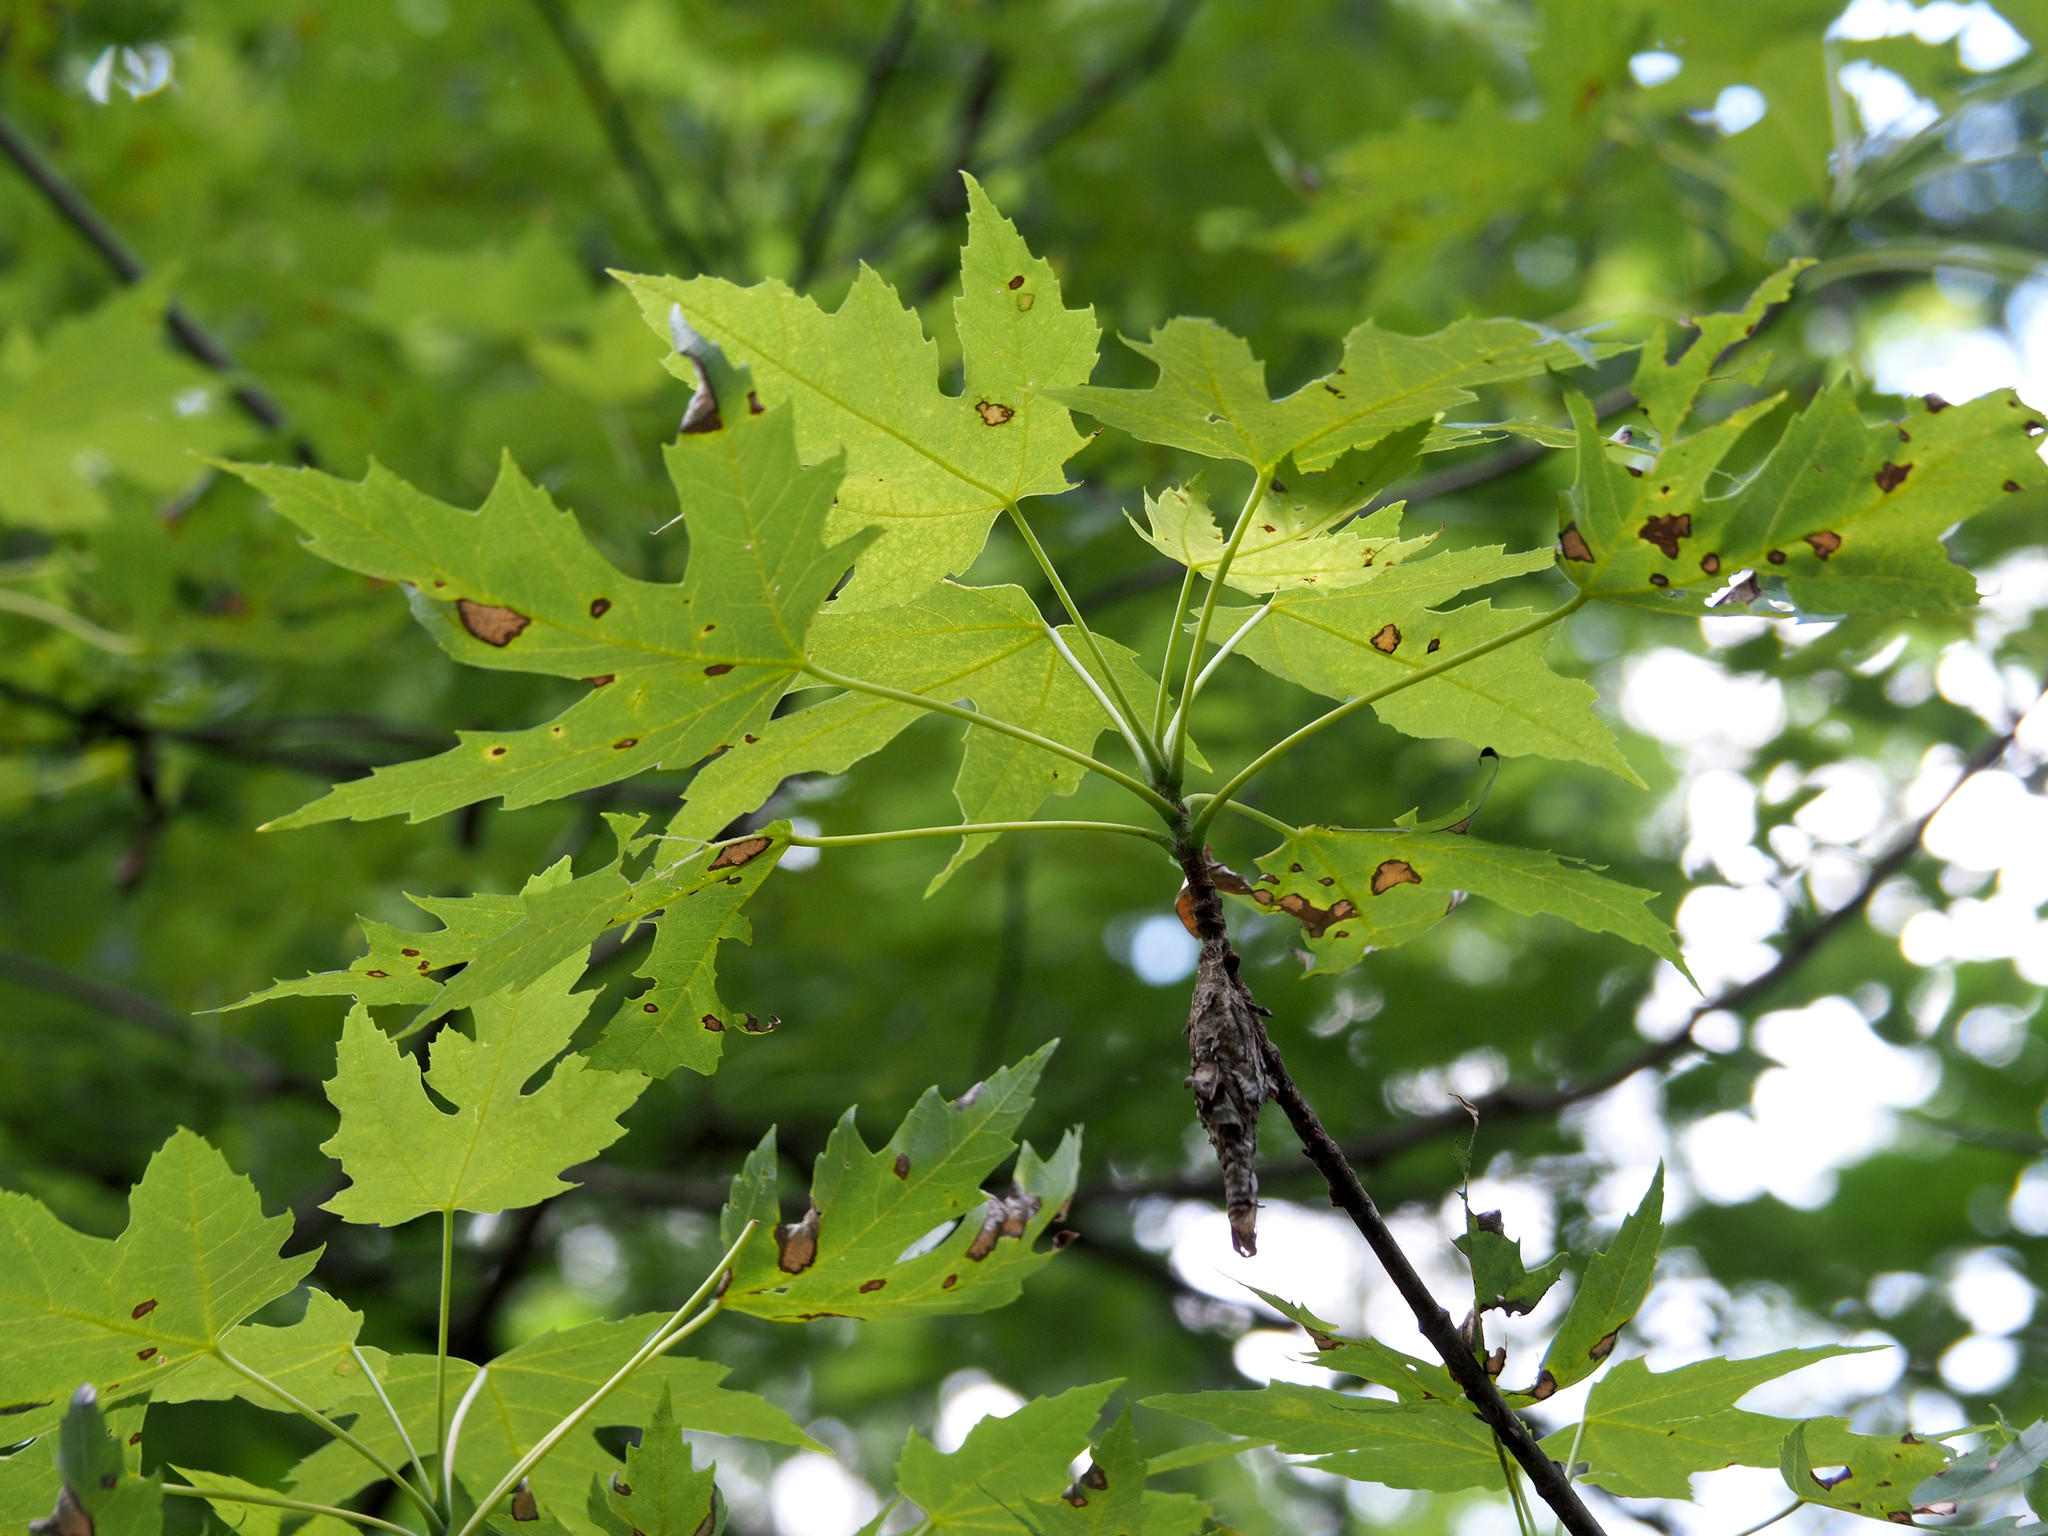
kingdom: Plantae
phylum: Tracheophyta
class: Magnoliopsida
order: Sapindales
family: Sapindaceae
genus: Acer
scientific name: Acer saccharinum
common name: Silver maple
